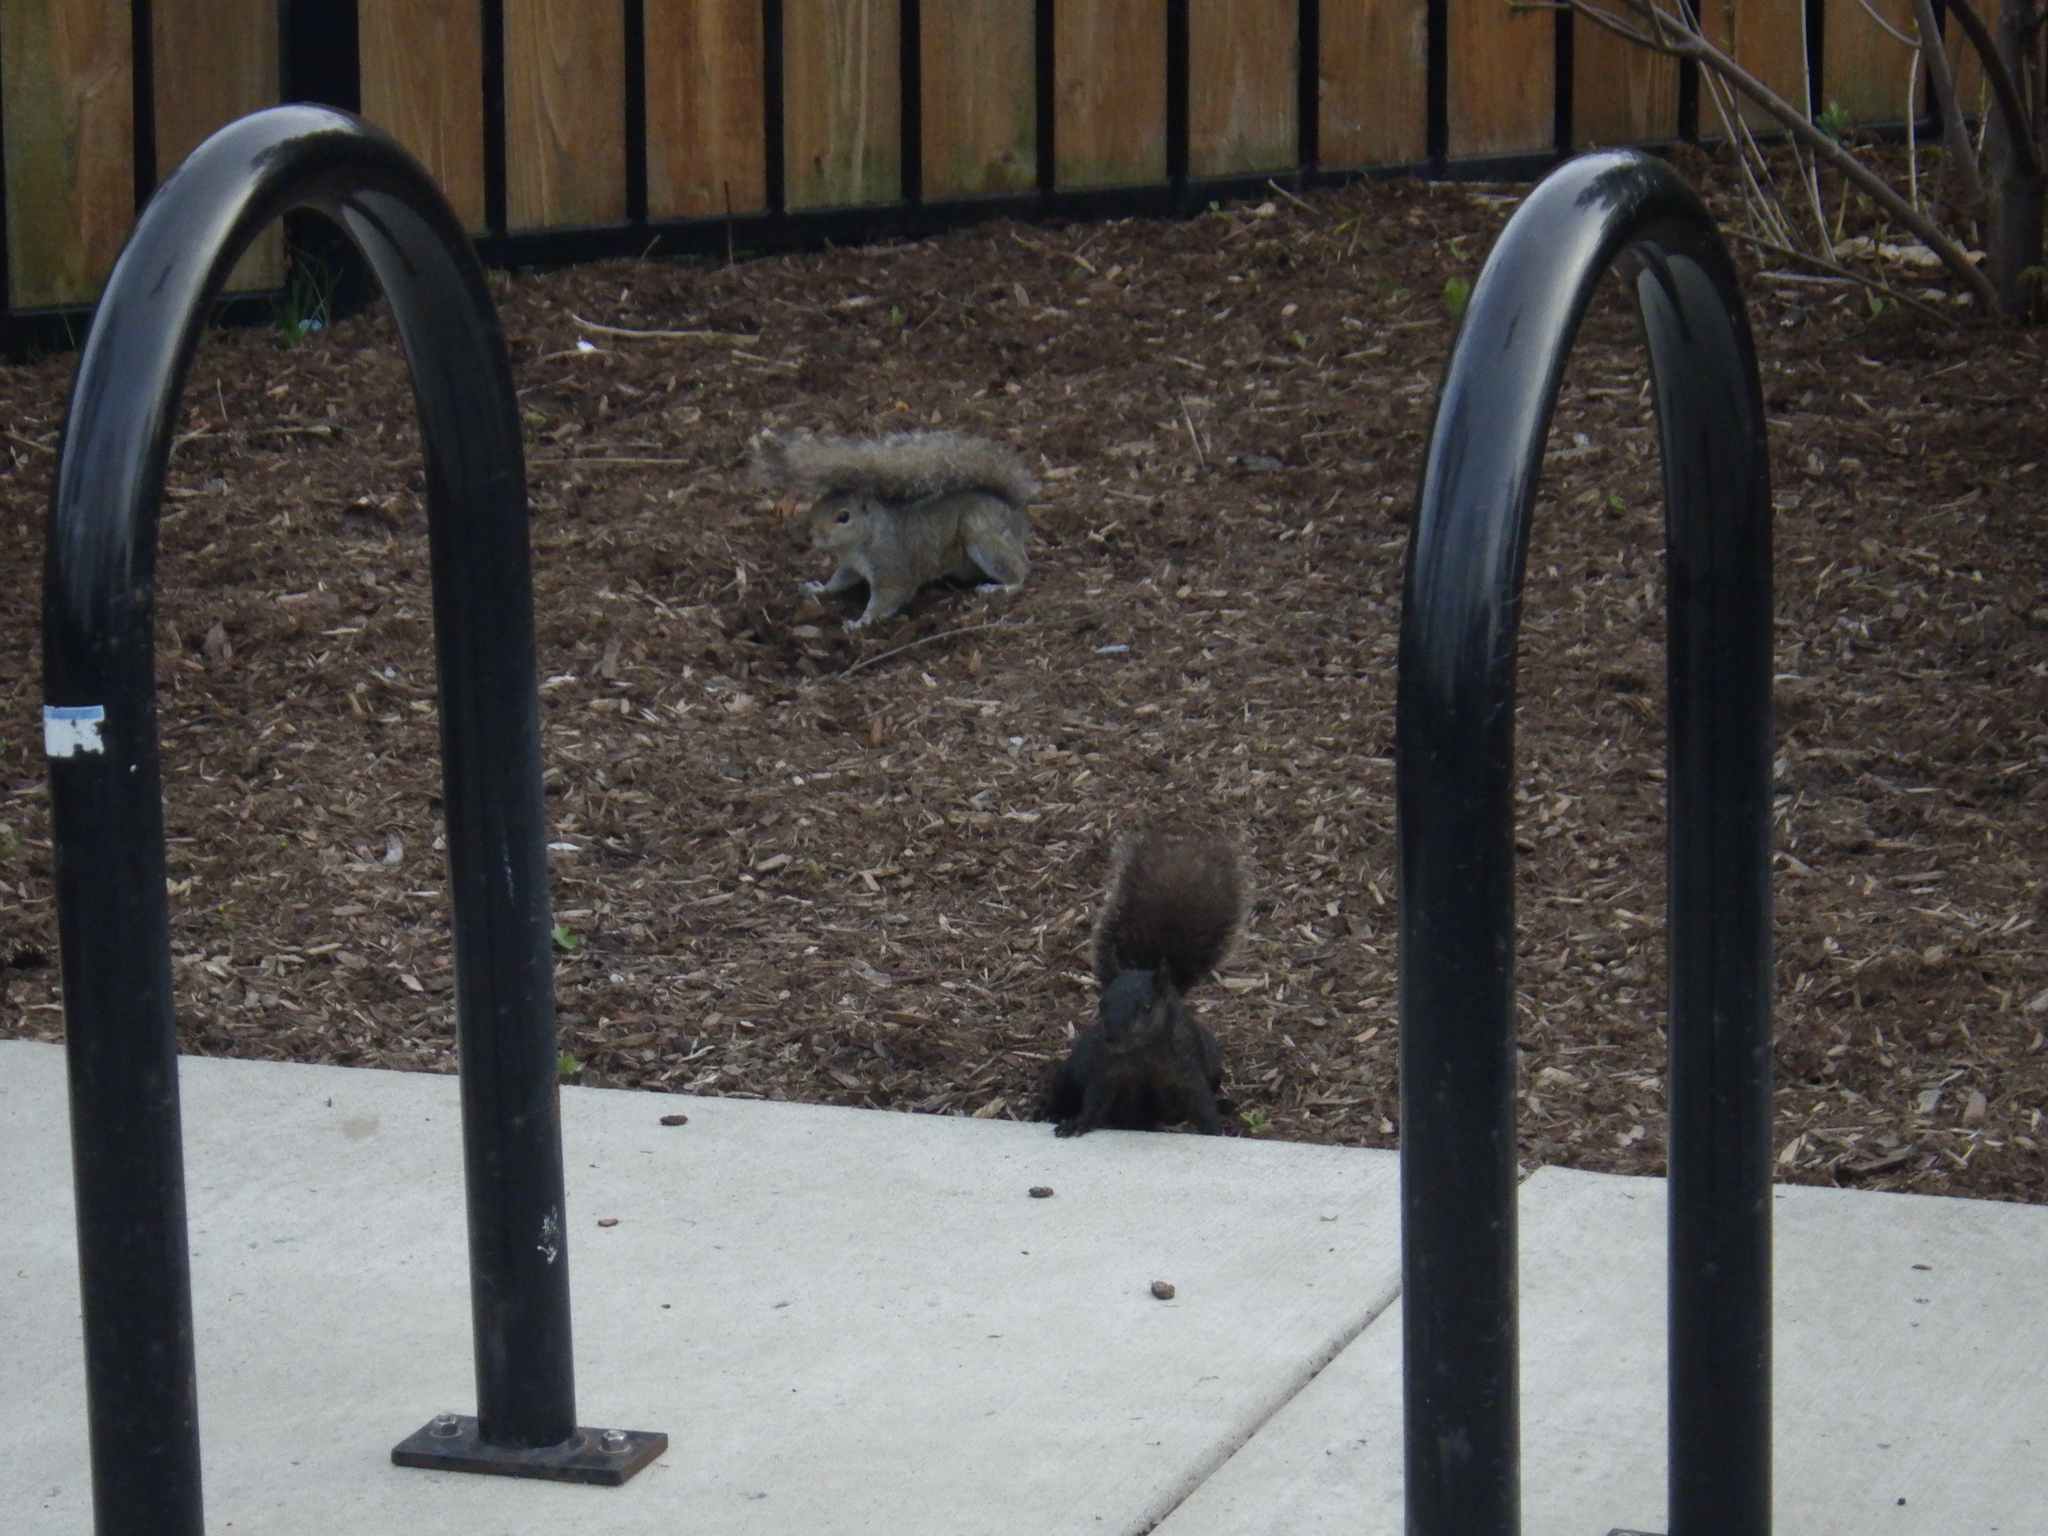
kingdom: Animalia
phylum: Chordata
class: Mammalia
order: Rodentia
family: Sciuridae
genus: Sciurus
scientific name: Sciurus carolinensis
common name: Eastern gray squirrel
